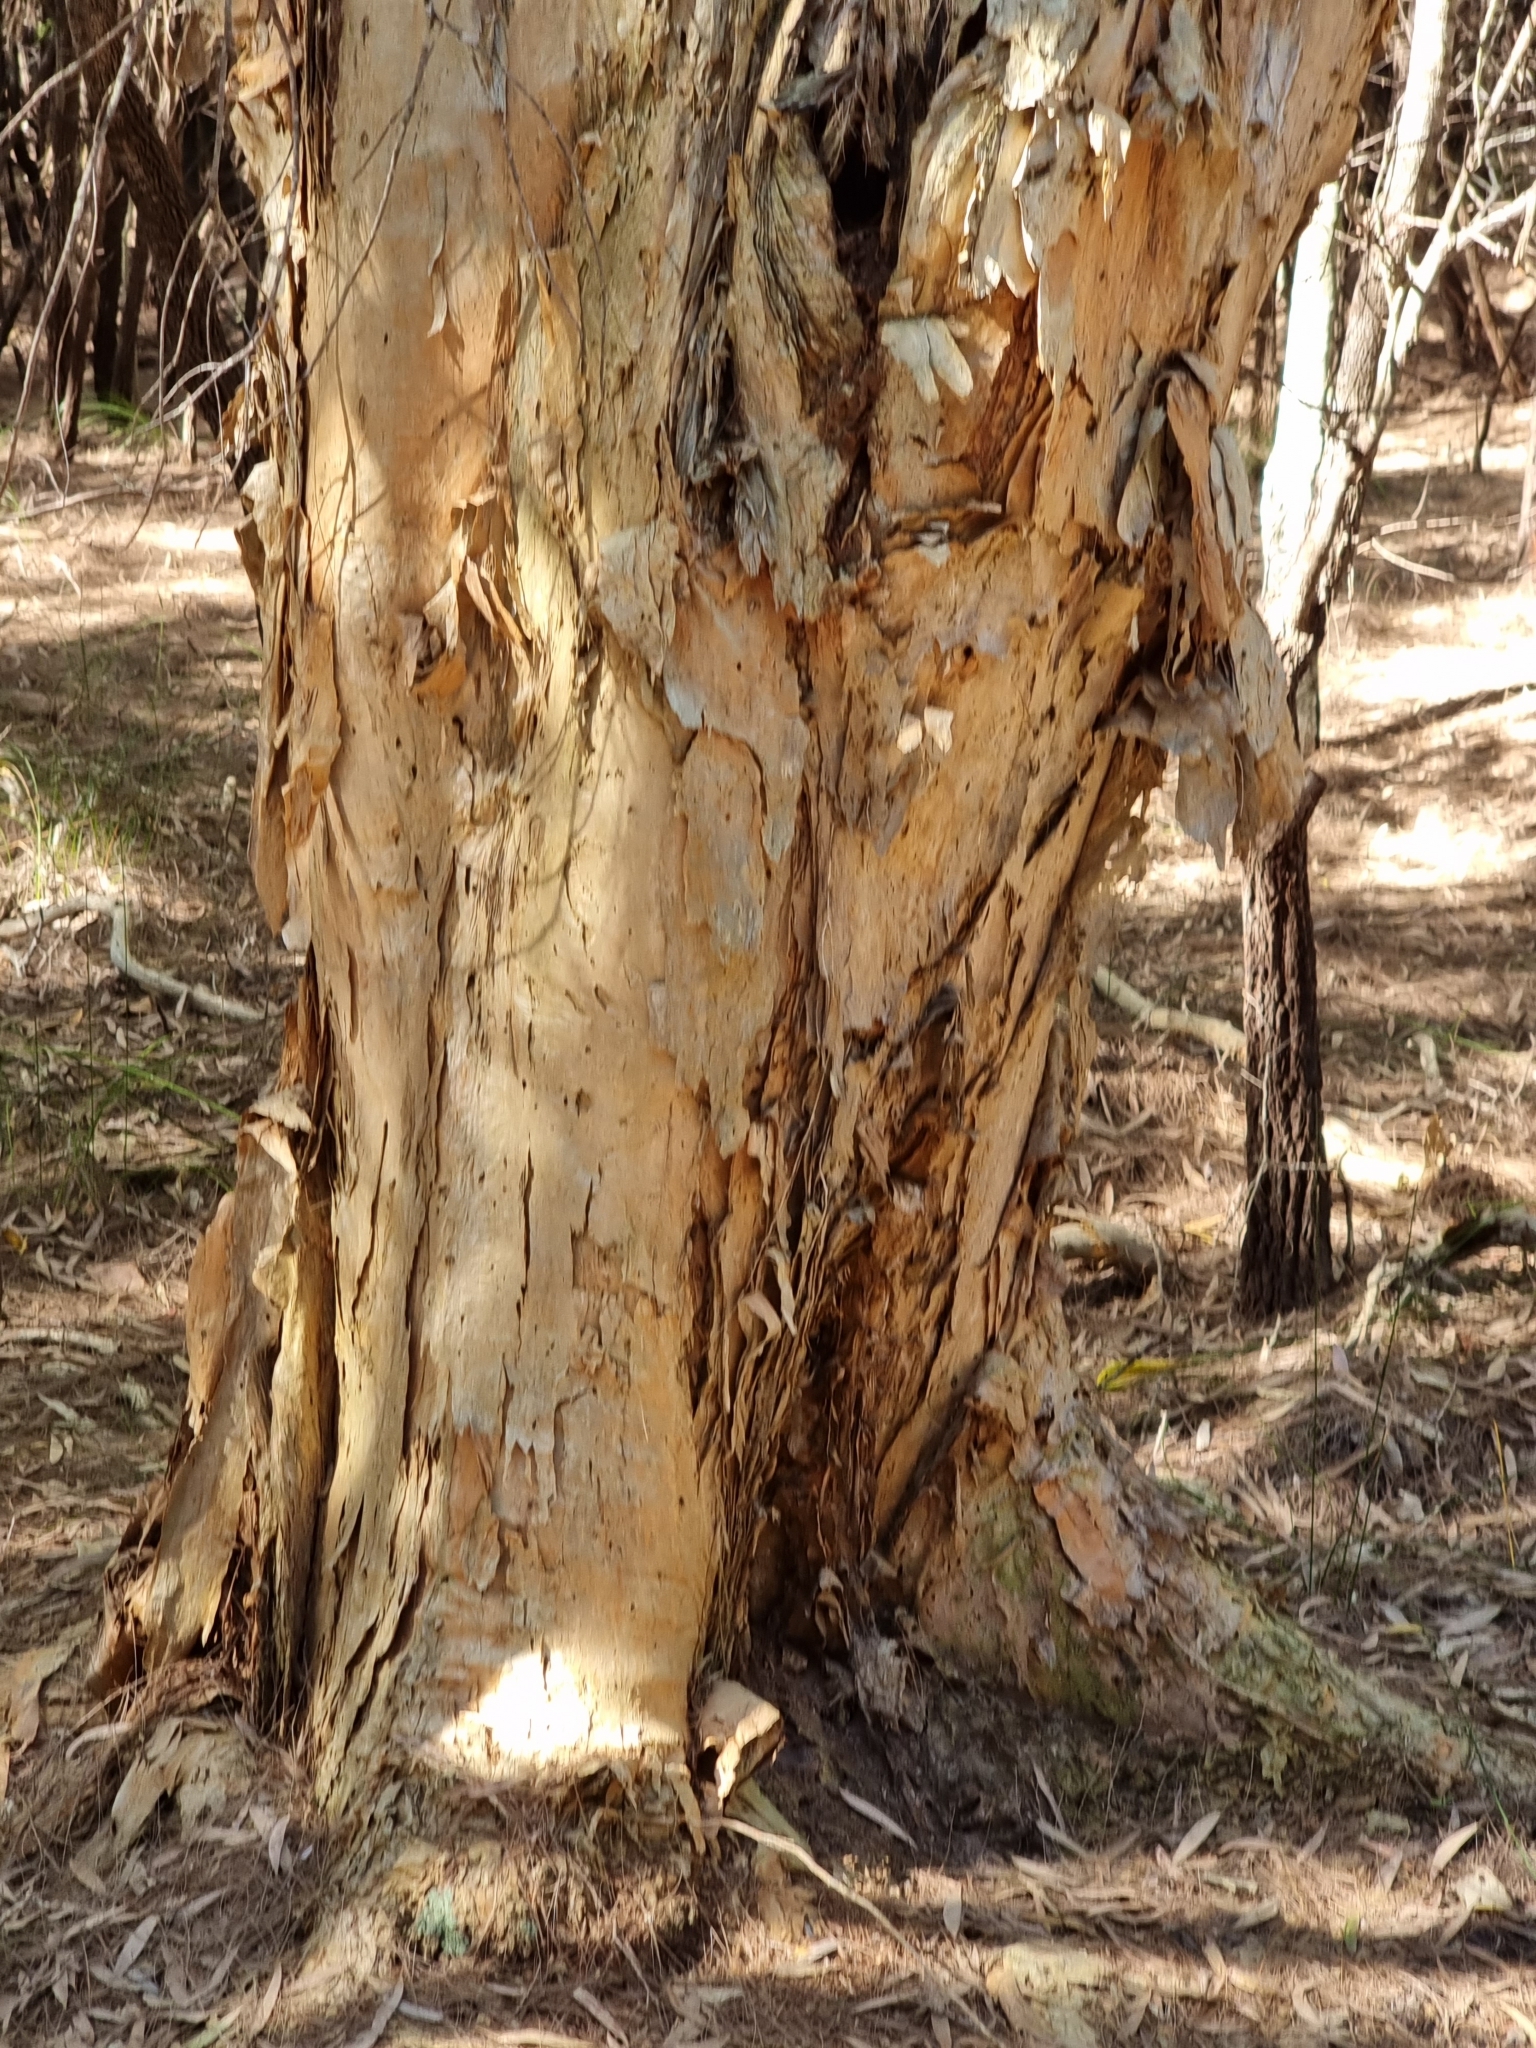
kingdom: Plantae
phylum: Tracheophyta
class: Magnoliopsida
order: Myrtales
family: Myrtaceae
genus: Melaleuca
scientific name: Melaleuca quinquenervia
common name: Punktree
